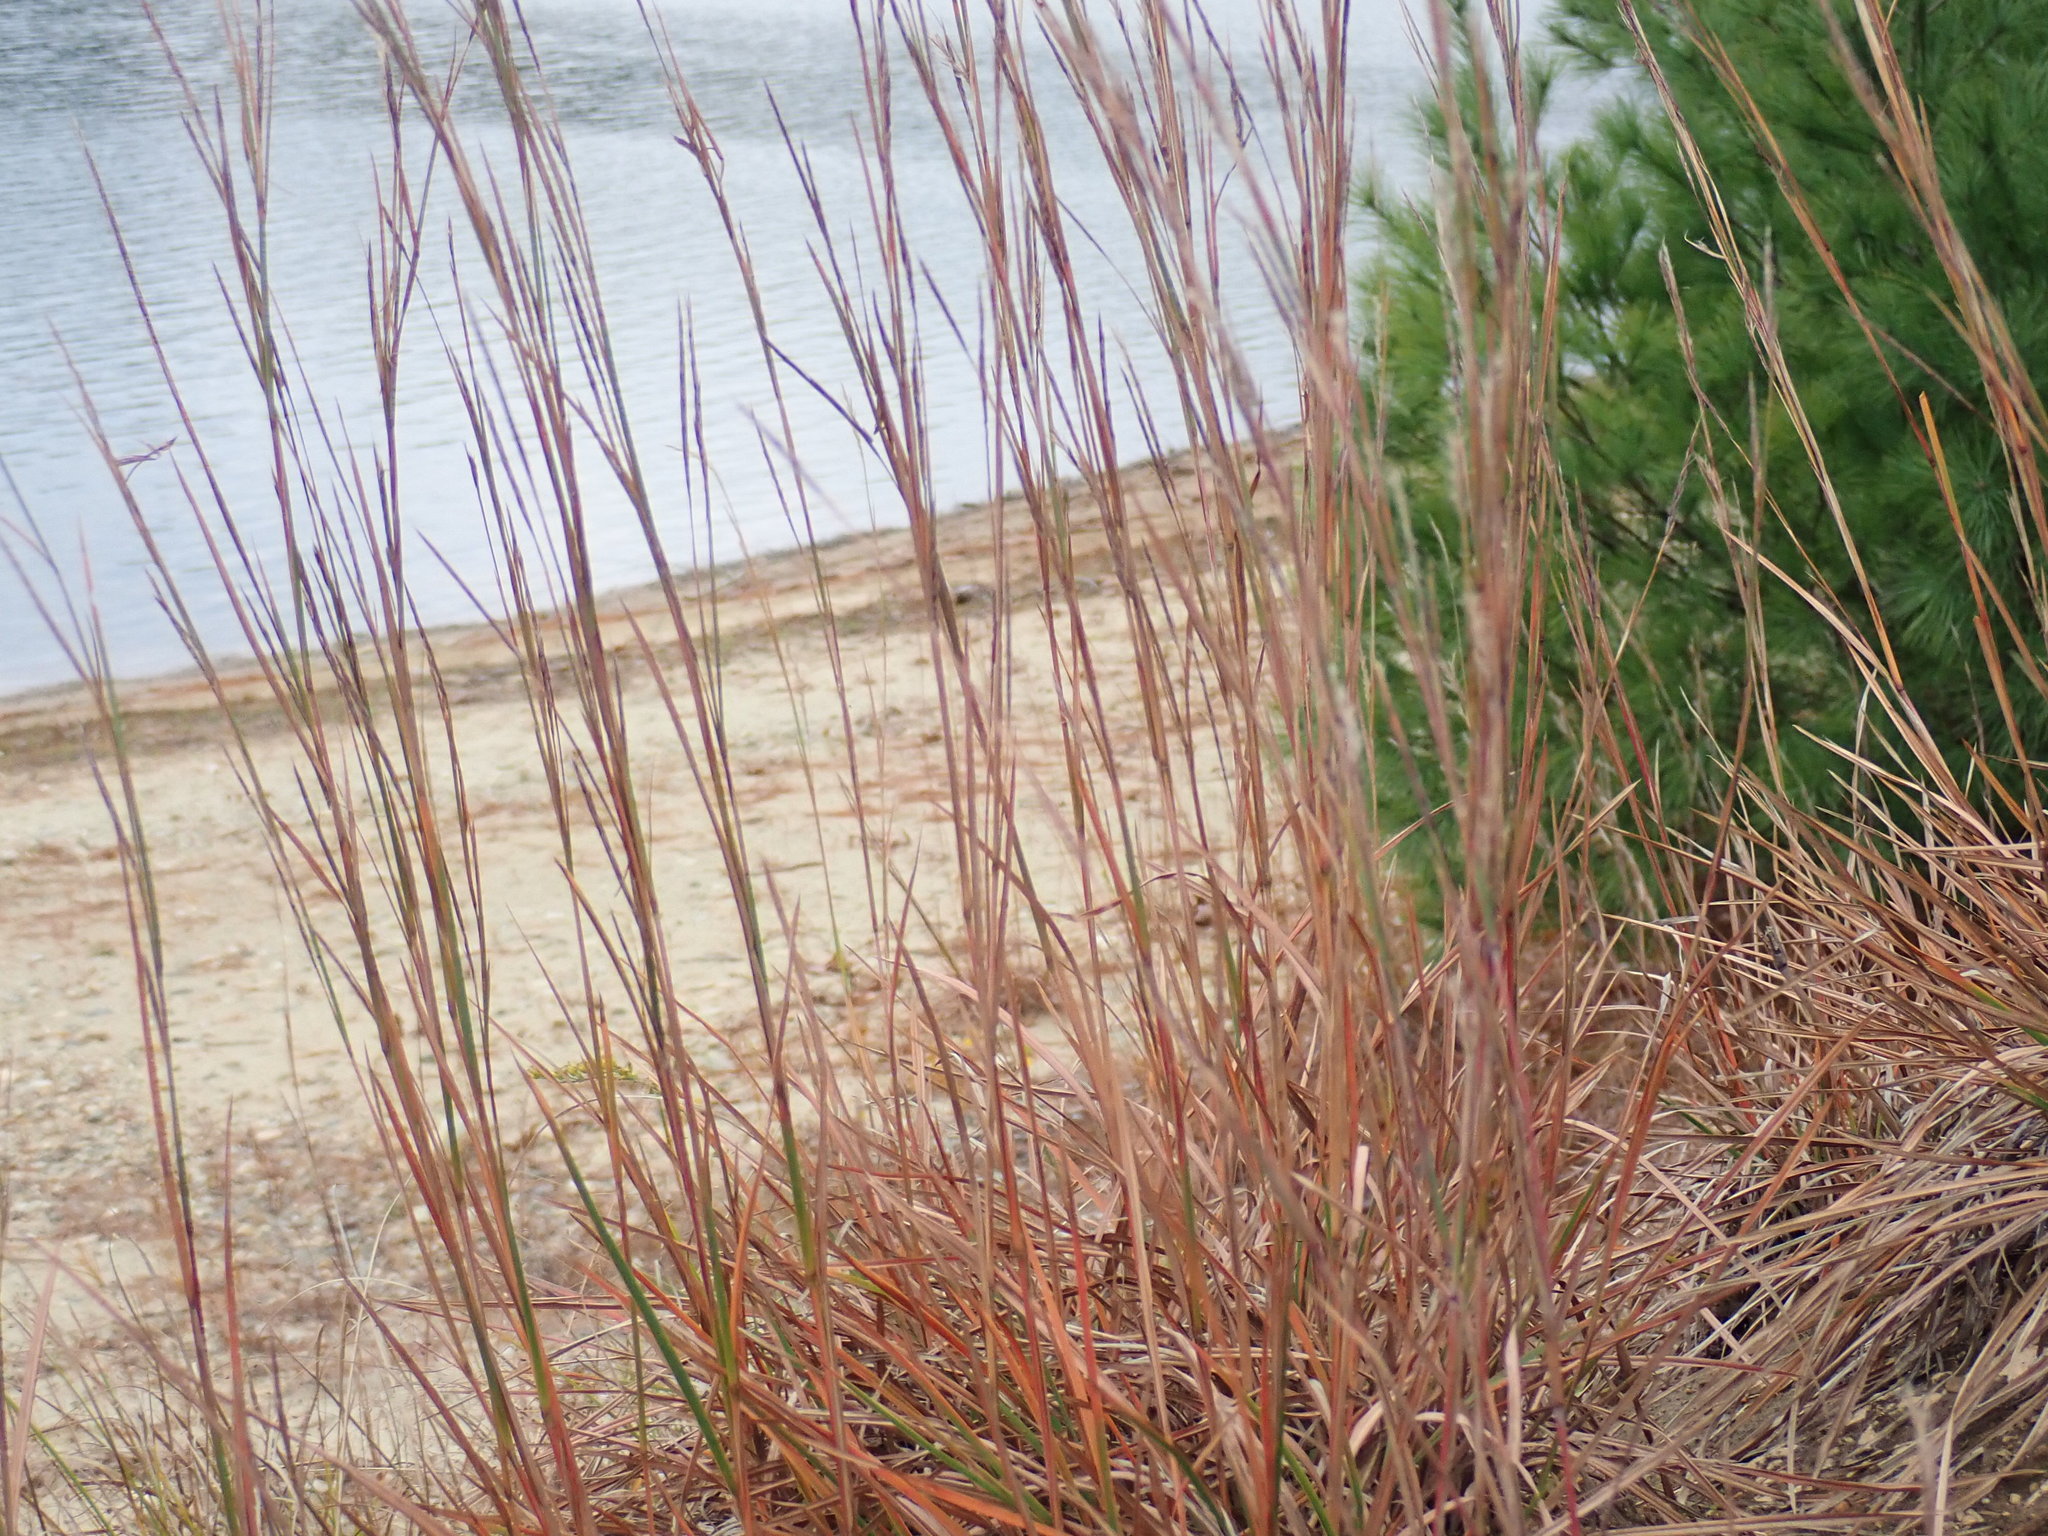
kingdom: Plantae
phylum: Tracheophyta
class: Liliopsida
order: Poales
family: Poaceae
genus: Schizachyrium
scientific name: Schizachyrium scoparium
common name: Little bluestem
